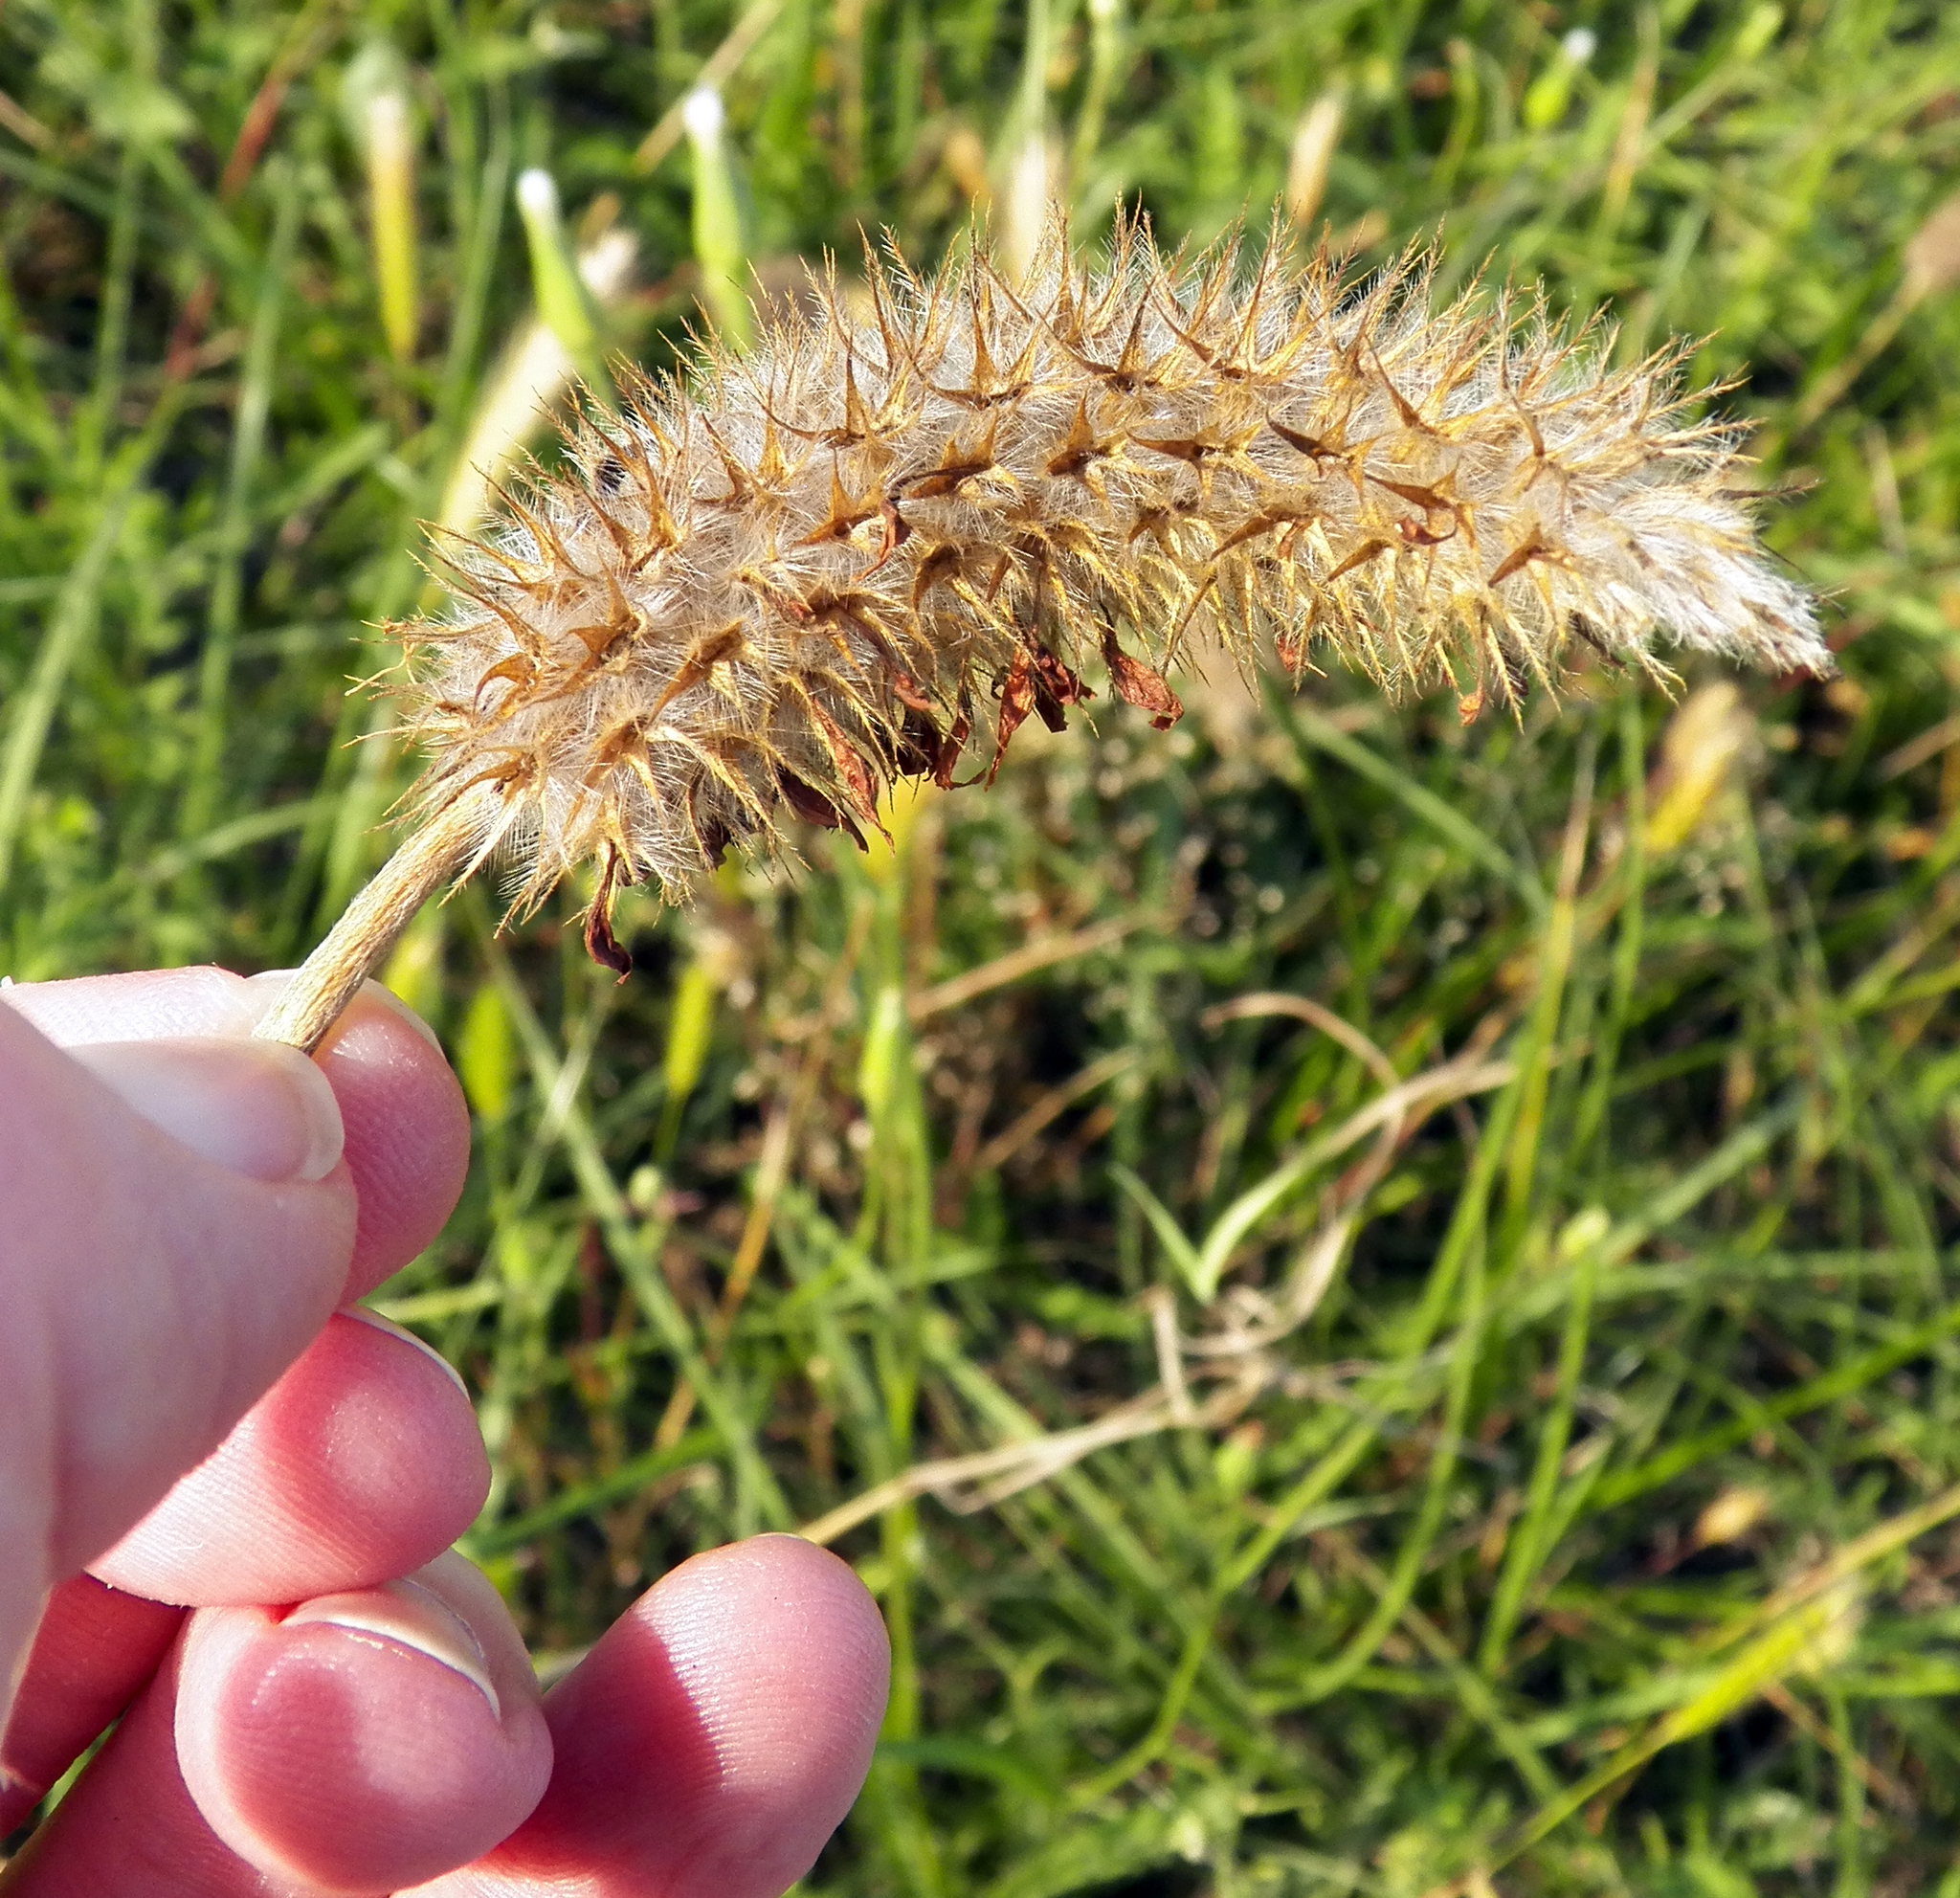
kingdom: Plantae
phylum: Tracheophyta
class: Magnoliopsida
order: Fabales
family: Fabaceae
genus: Trifolium
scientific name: Trifolium incarnatum
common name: Crimson clover
